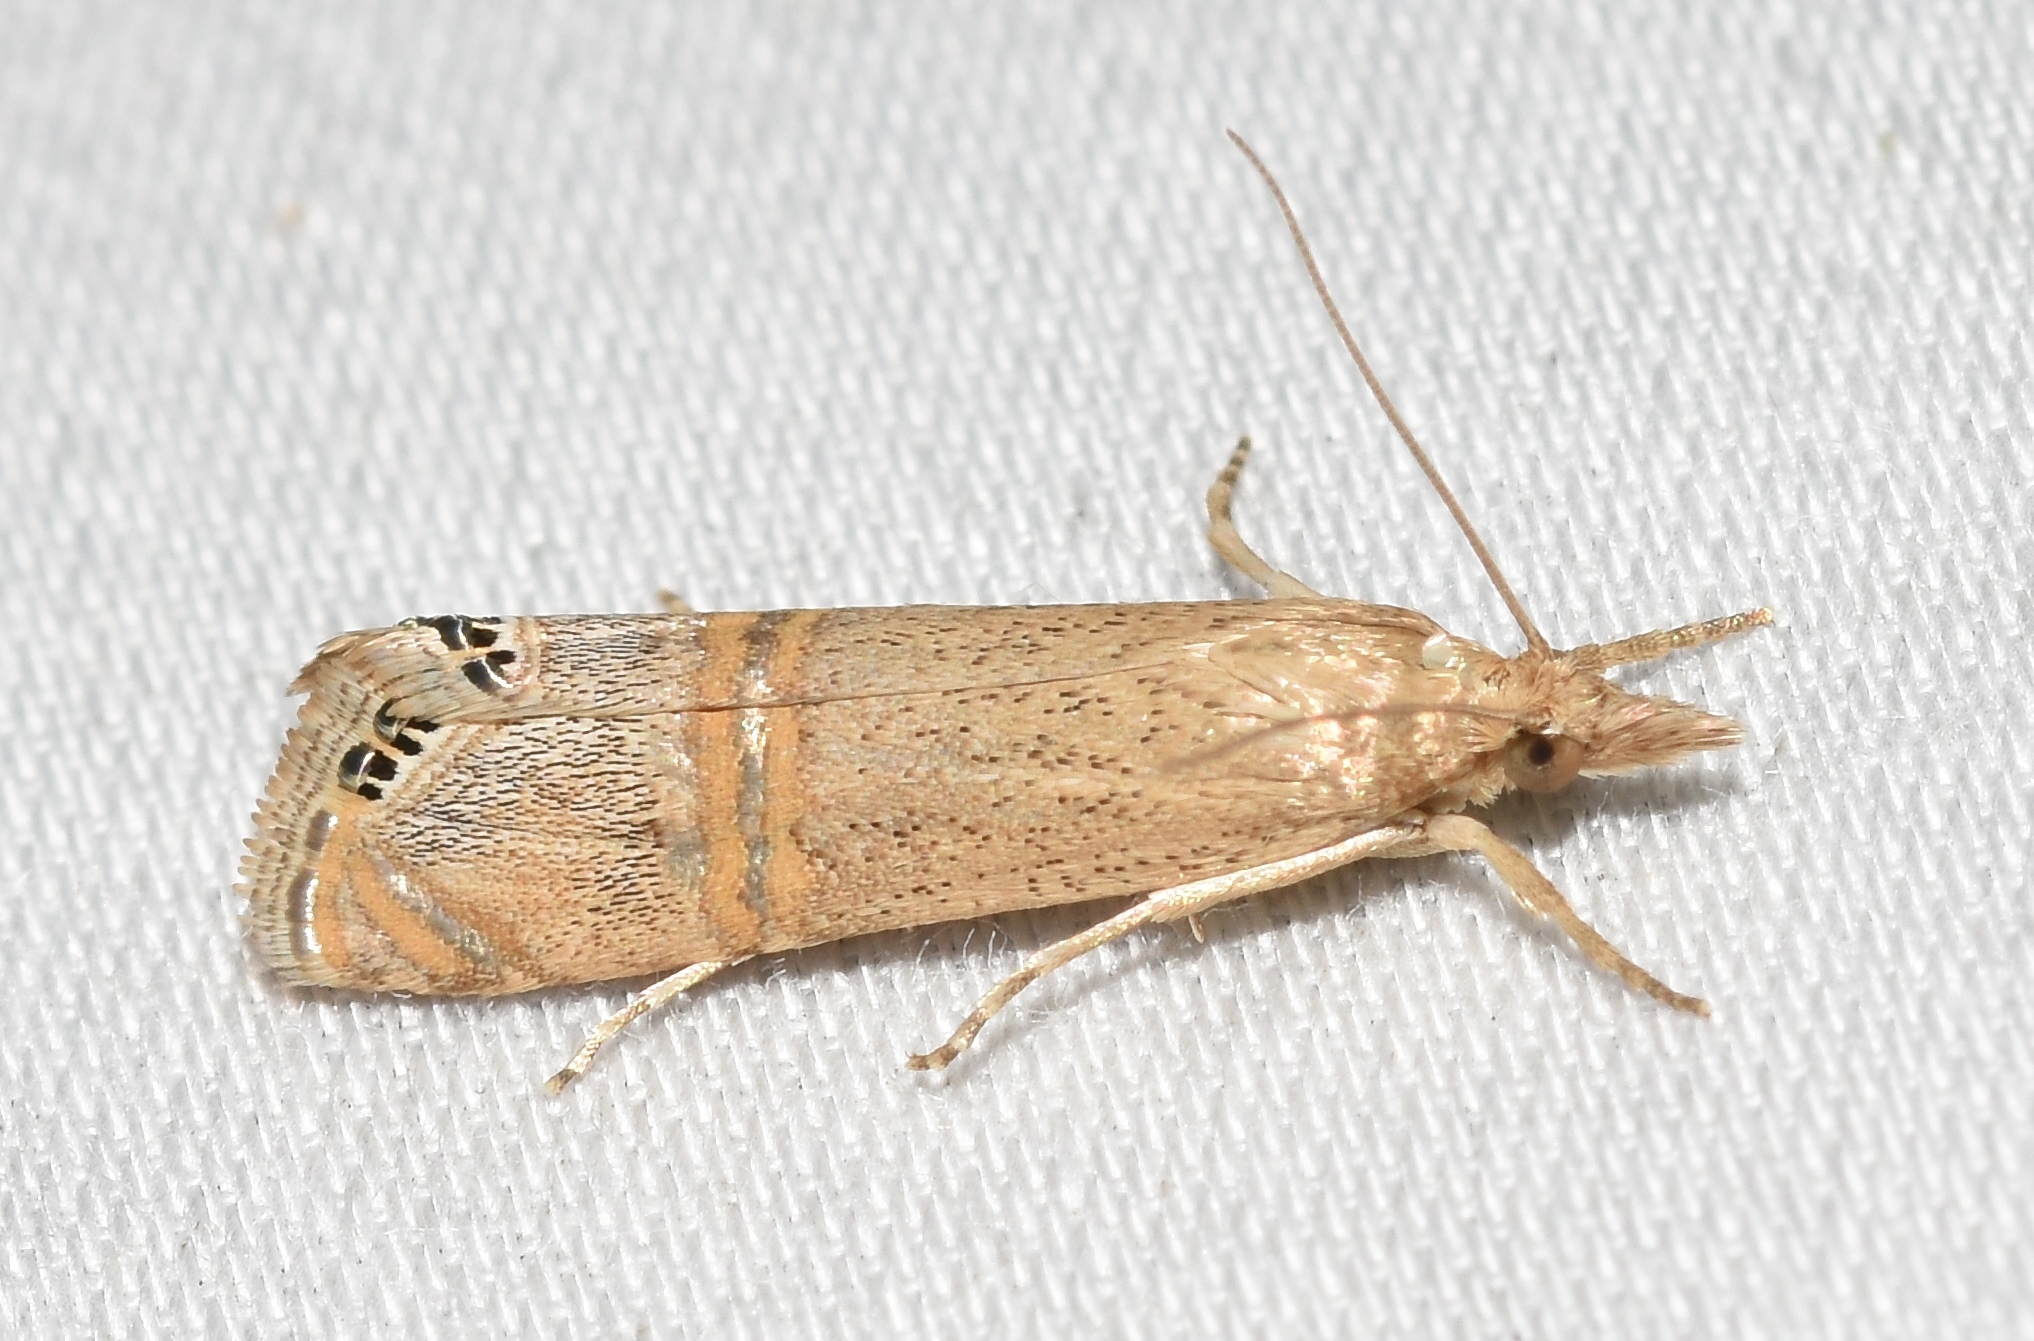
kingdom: Animalia
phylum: Arthropoda
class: Insecta
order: Lepidoptera
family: Crambidae
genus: Euchromius
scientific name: Euchromius ocellea
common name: Necklace veneer moth
